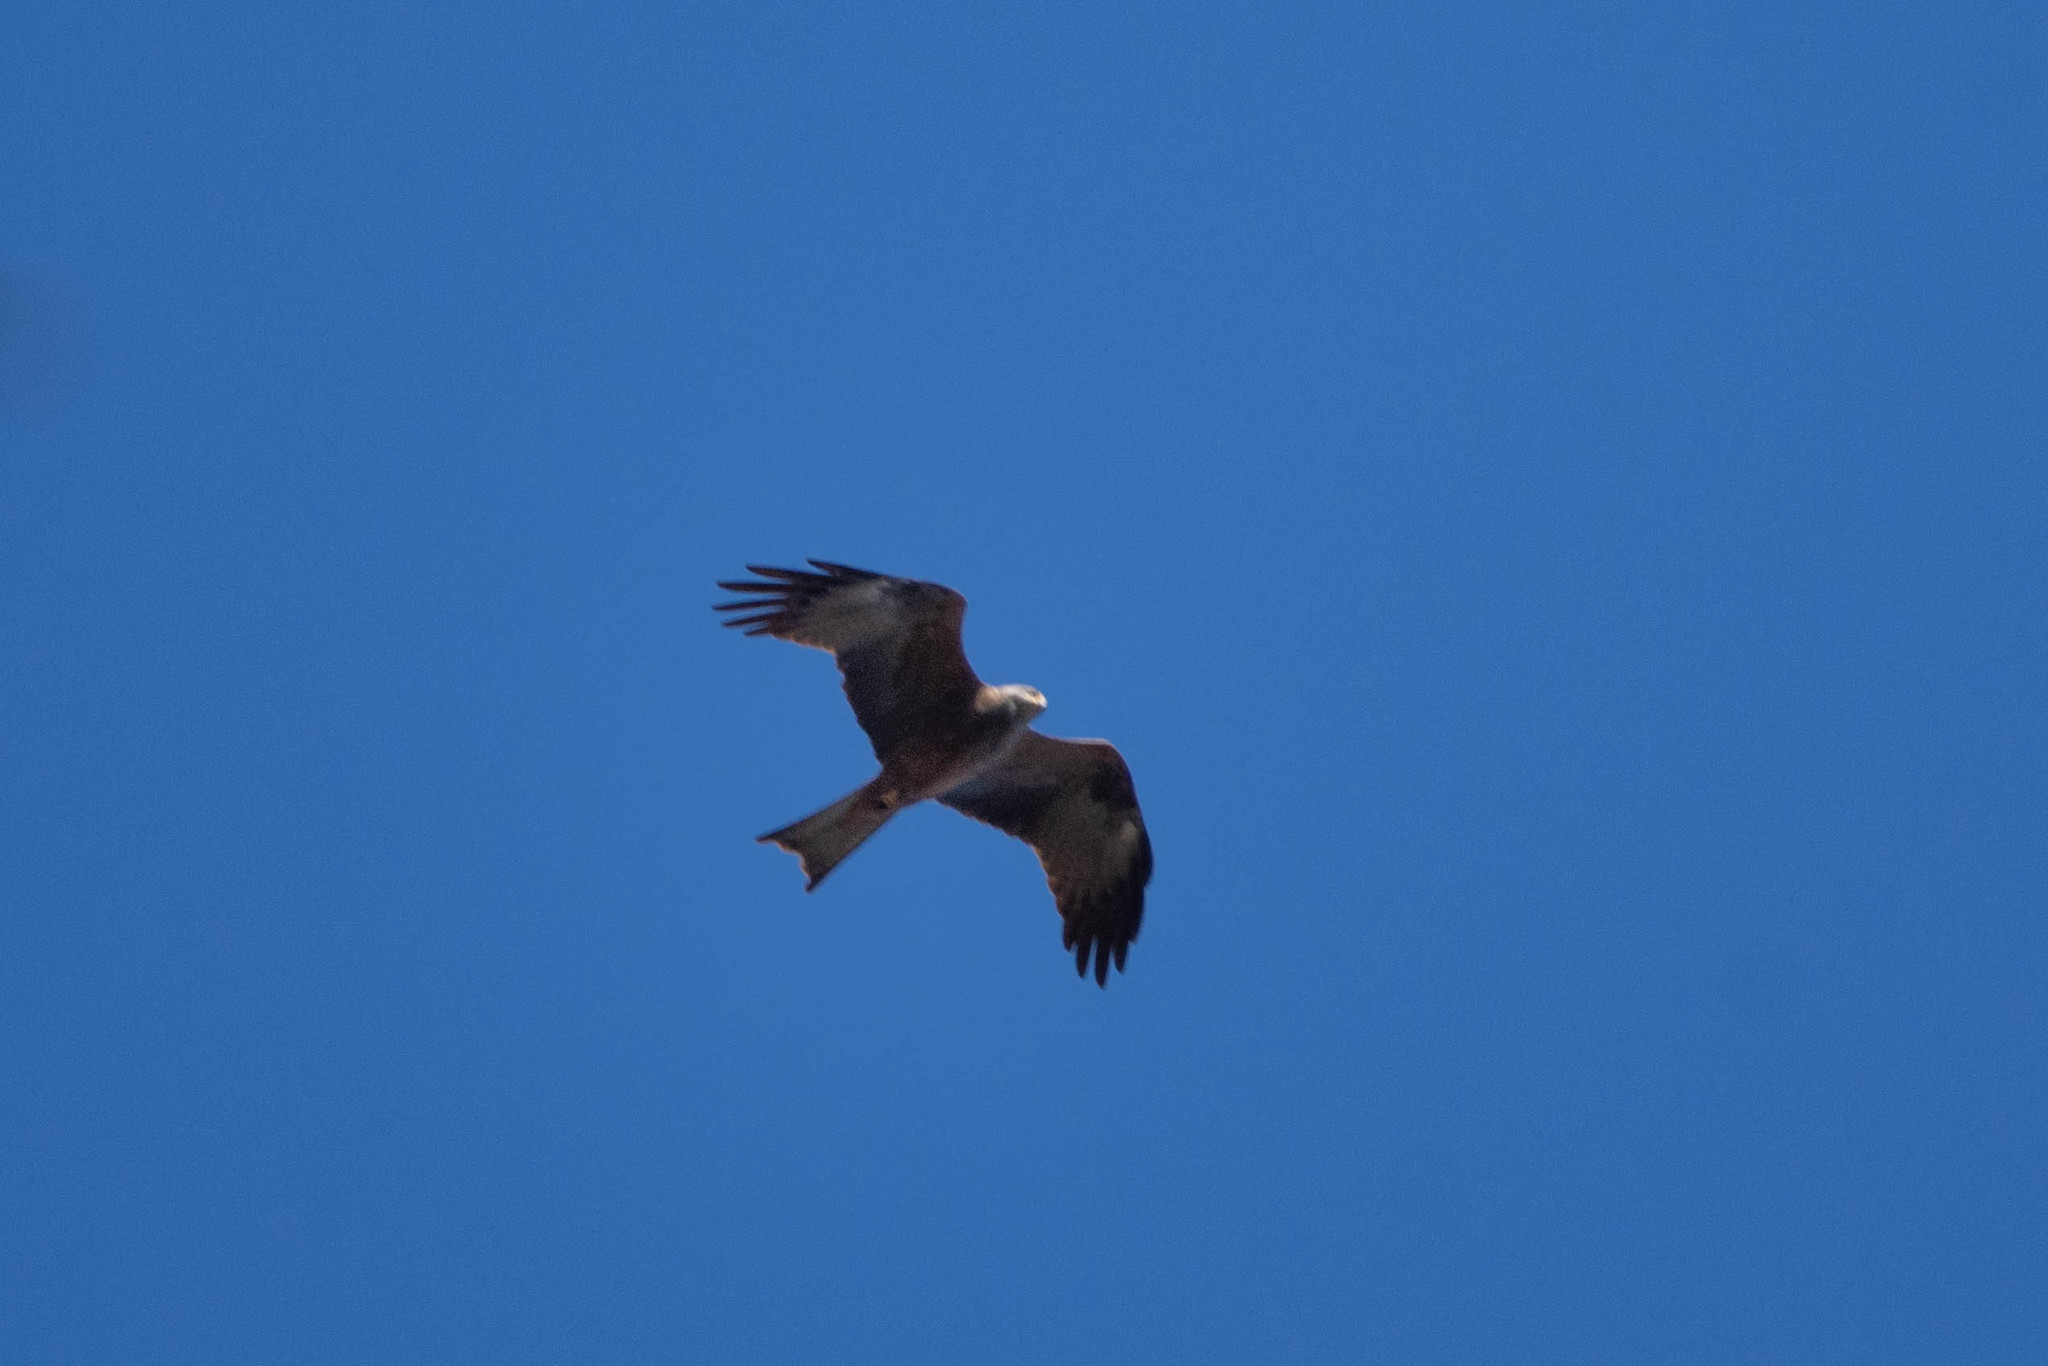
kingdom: Animalia
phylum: Chordata
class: Aves
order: Accipitriformes
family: Accipitridae
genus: Milvus
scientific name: Milvus milvus
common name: Red kite
